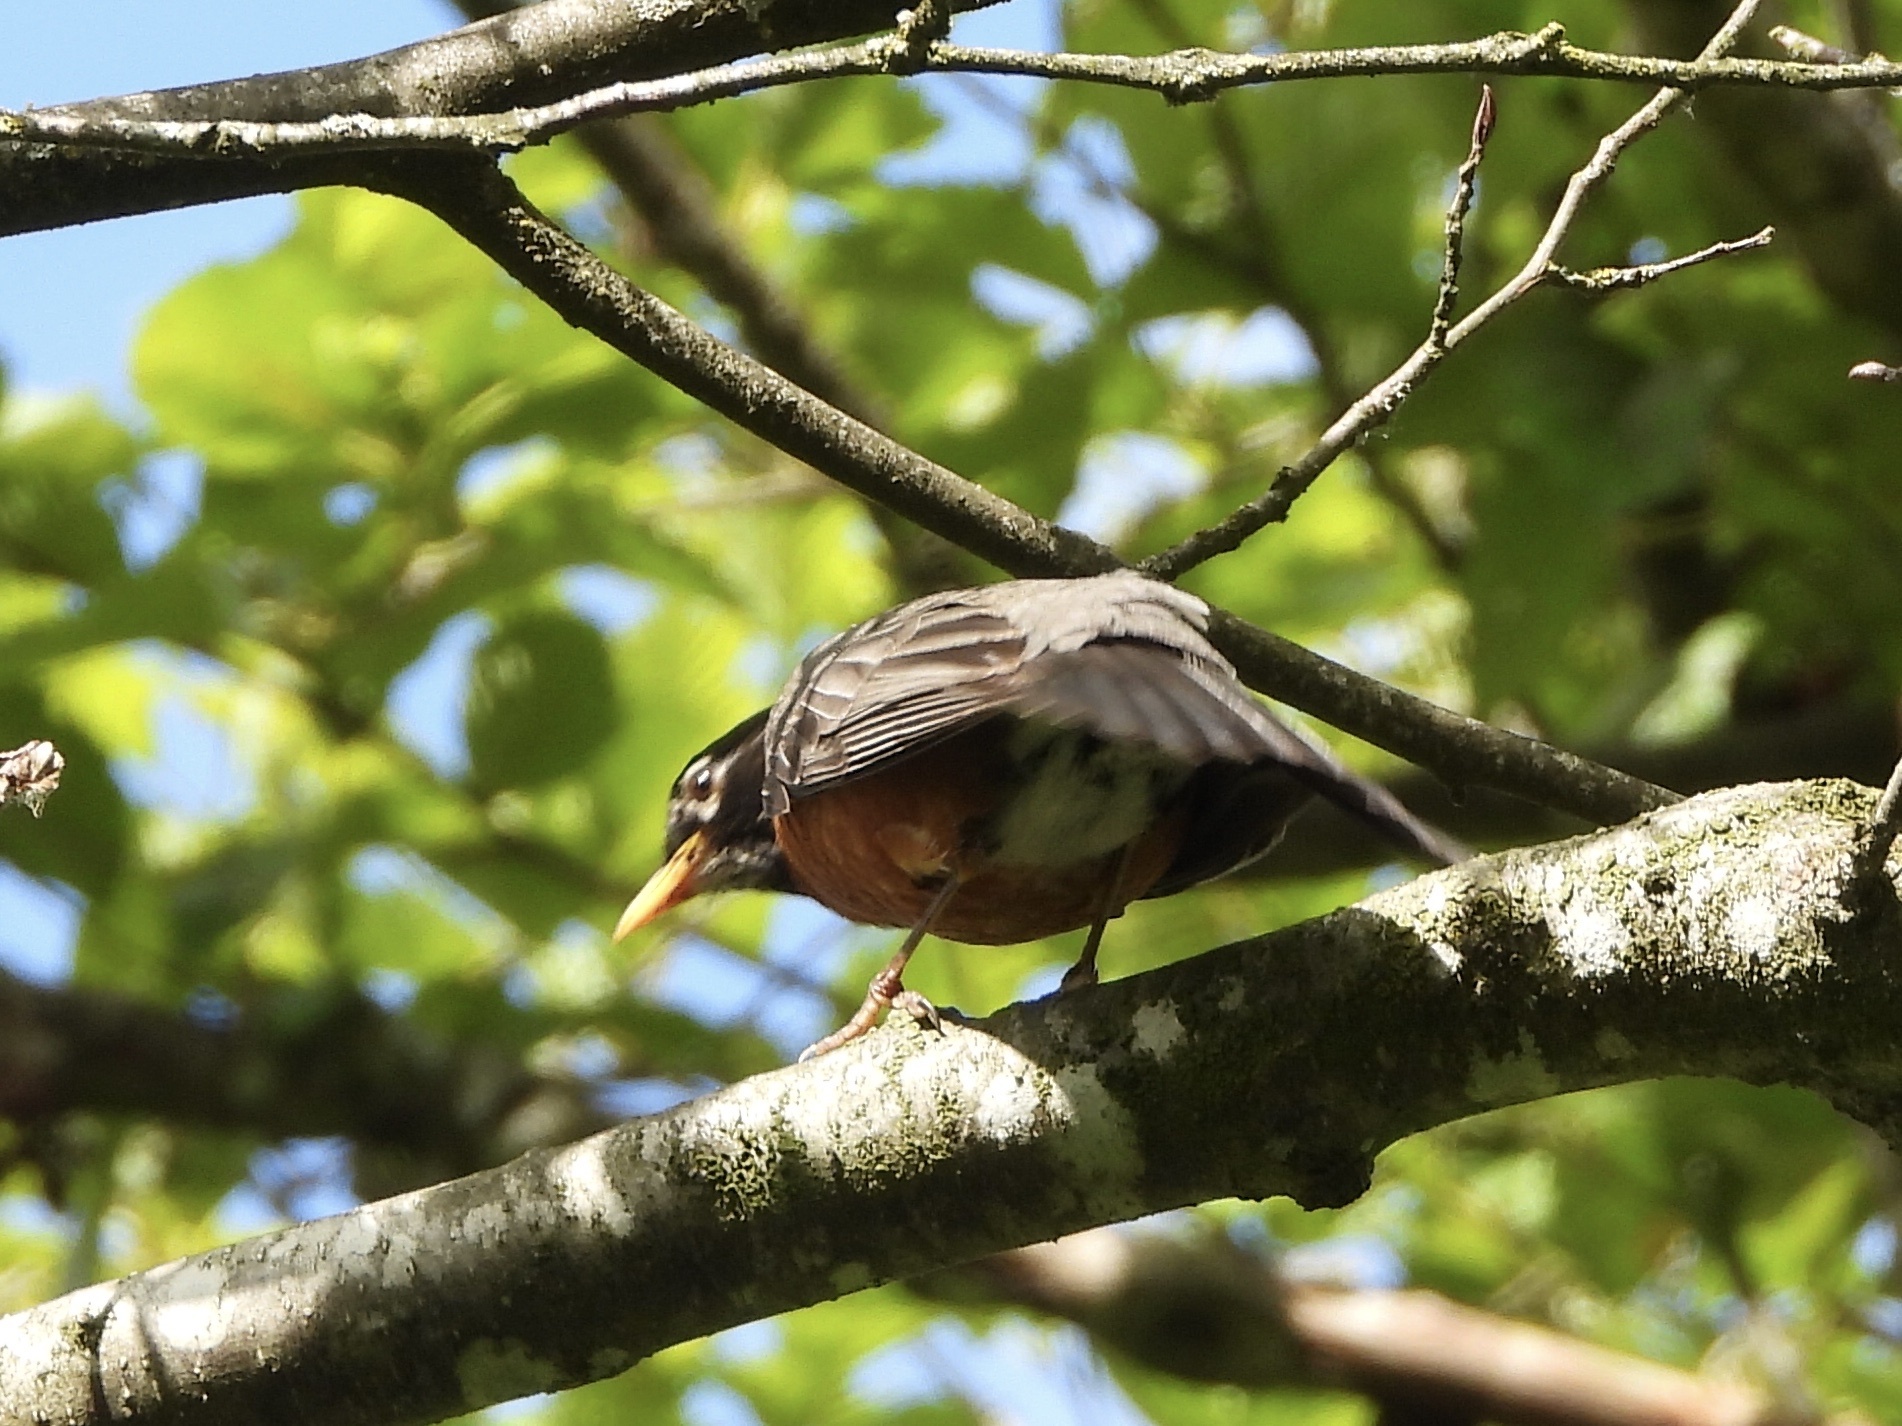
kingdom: Animalia
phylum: Chordata
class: Aves
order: Passeriformes
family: Turdidae
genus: Turdus
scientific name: Turdus migratorius
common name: American robin
